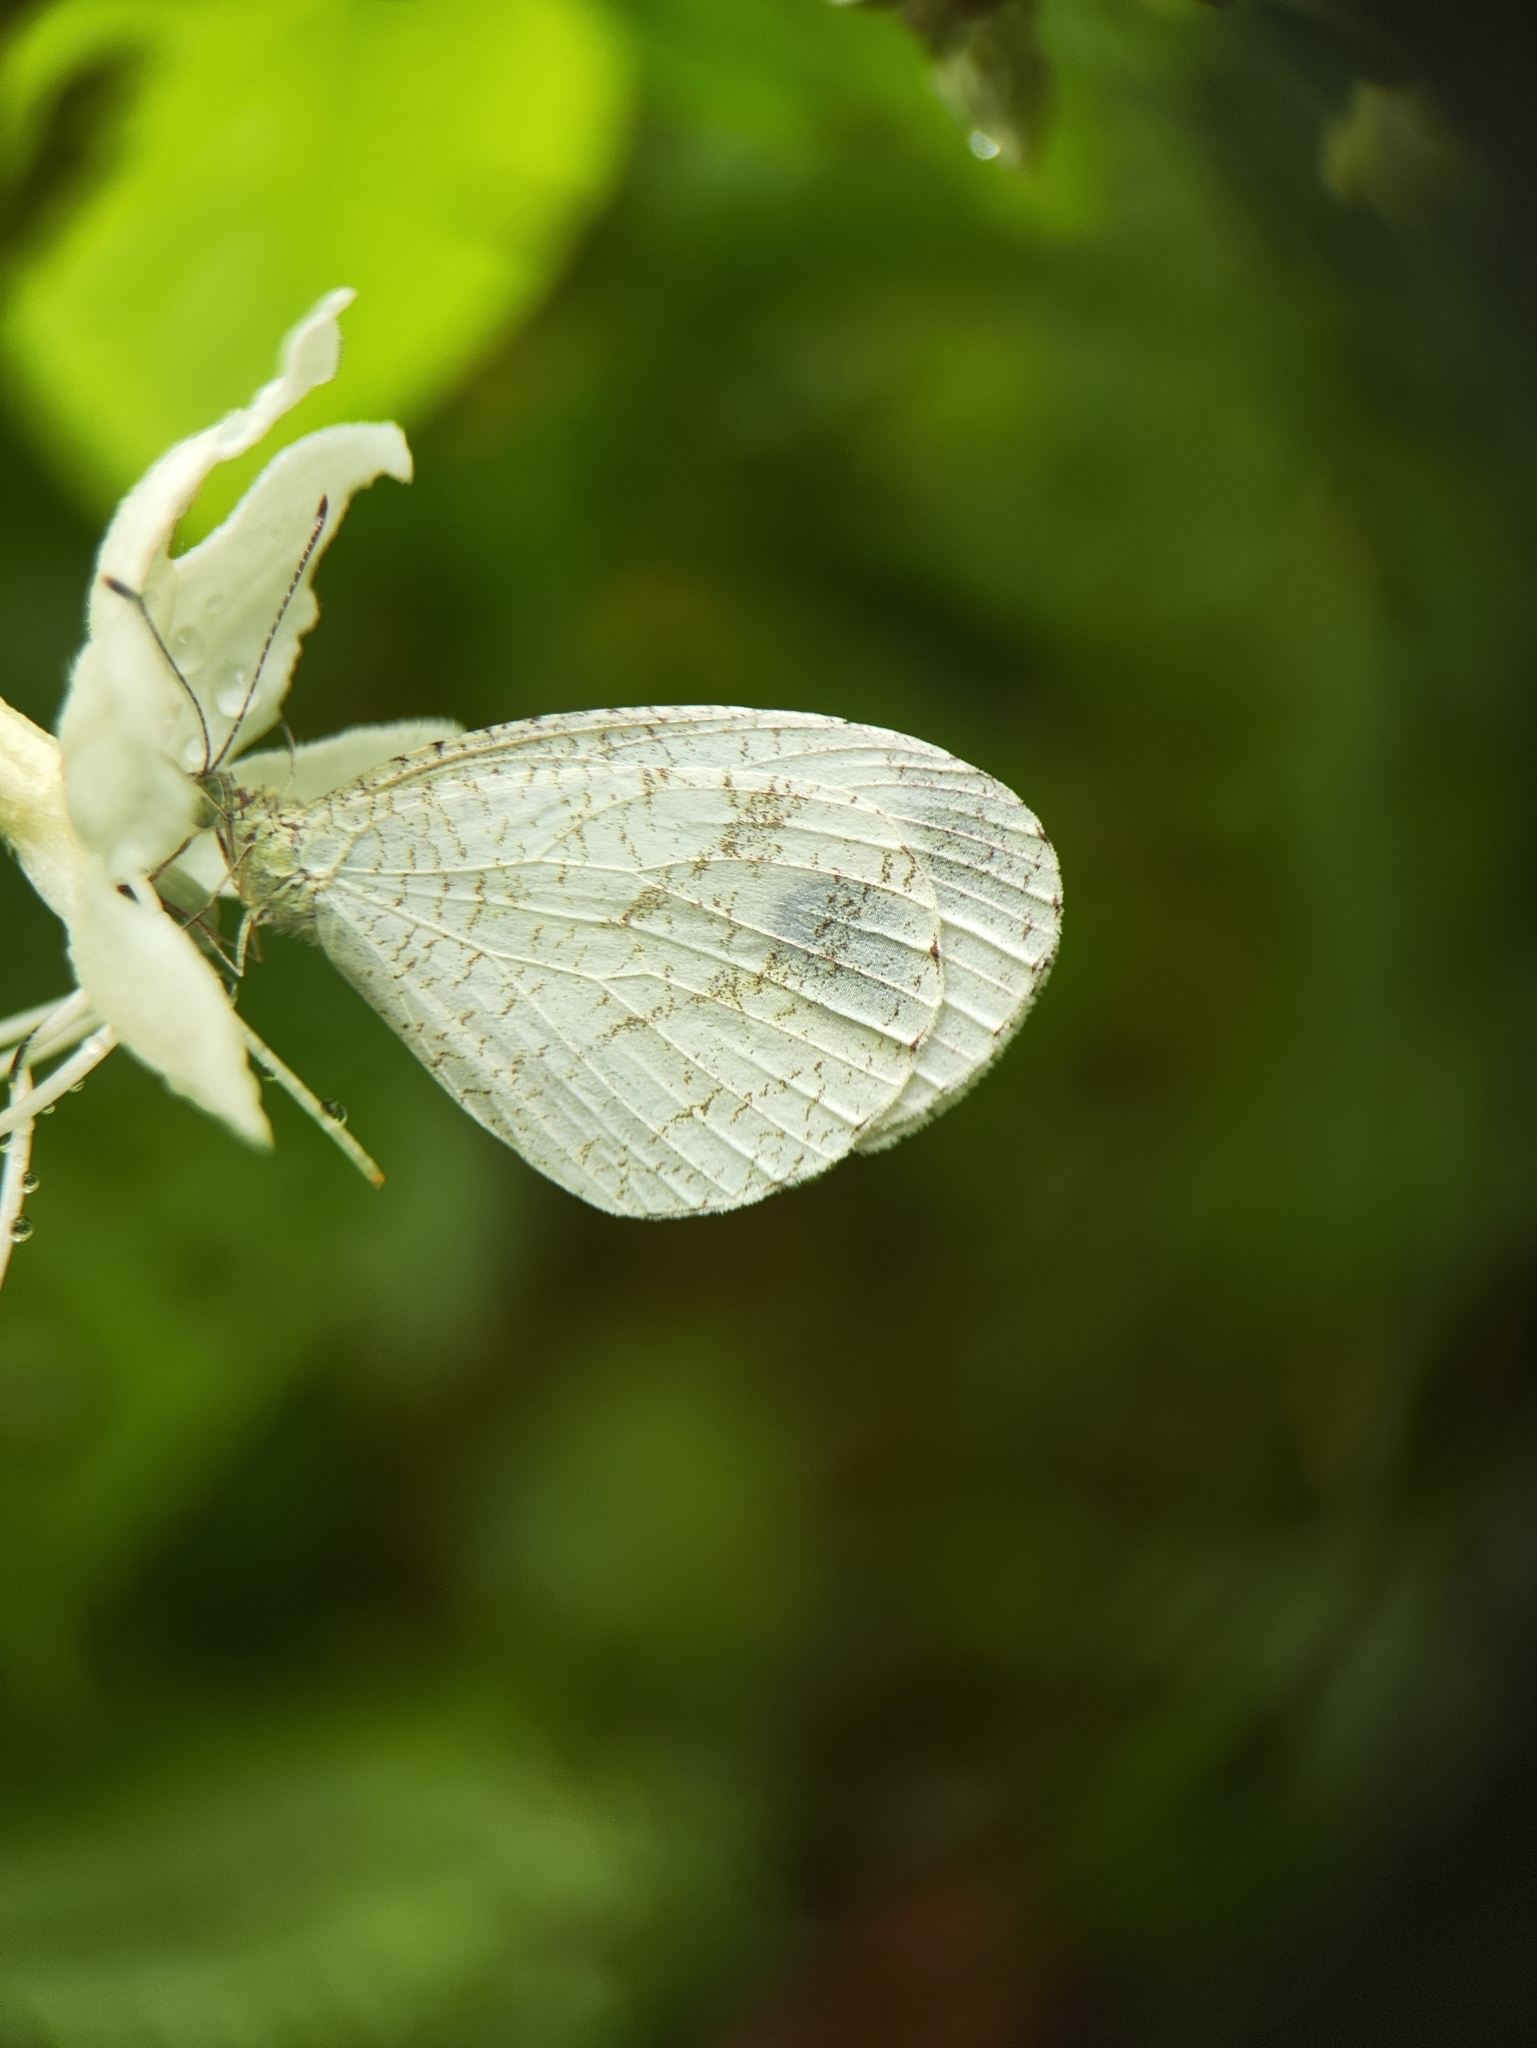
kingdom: Animalia
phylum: Arthropoda
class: Insecta
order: Lepidoptera
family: Pieridae
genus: Leptosia
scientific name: Leptosia nina
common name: Psyche
